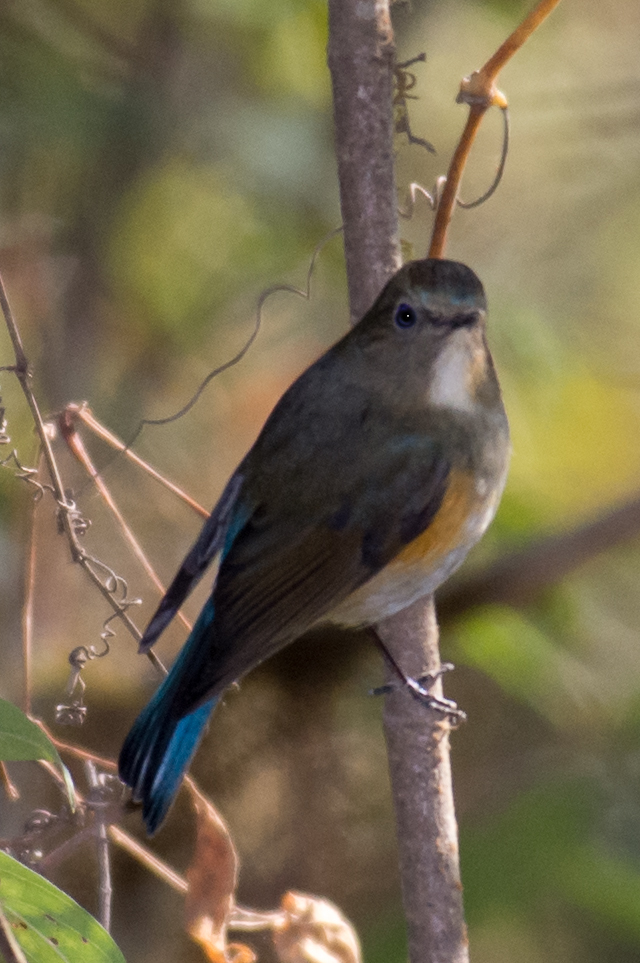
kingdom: Animalia
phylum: Chordata
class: Aves
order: Passeriformes
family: Muscicapidae
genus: Tarsiger
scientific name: Tarsiger rufilatus
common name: Himalayan bluetail
